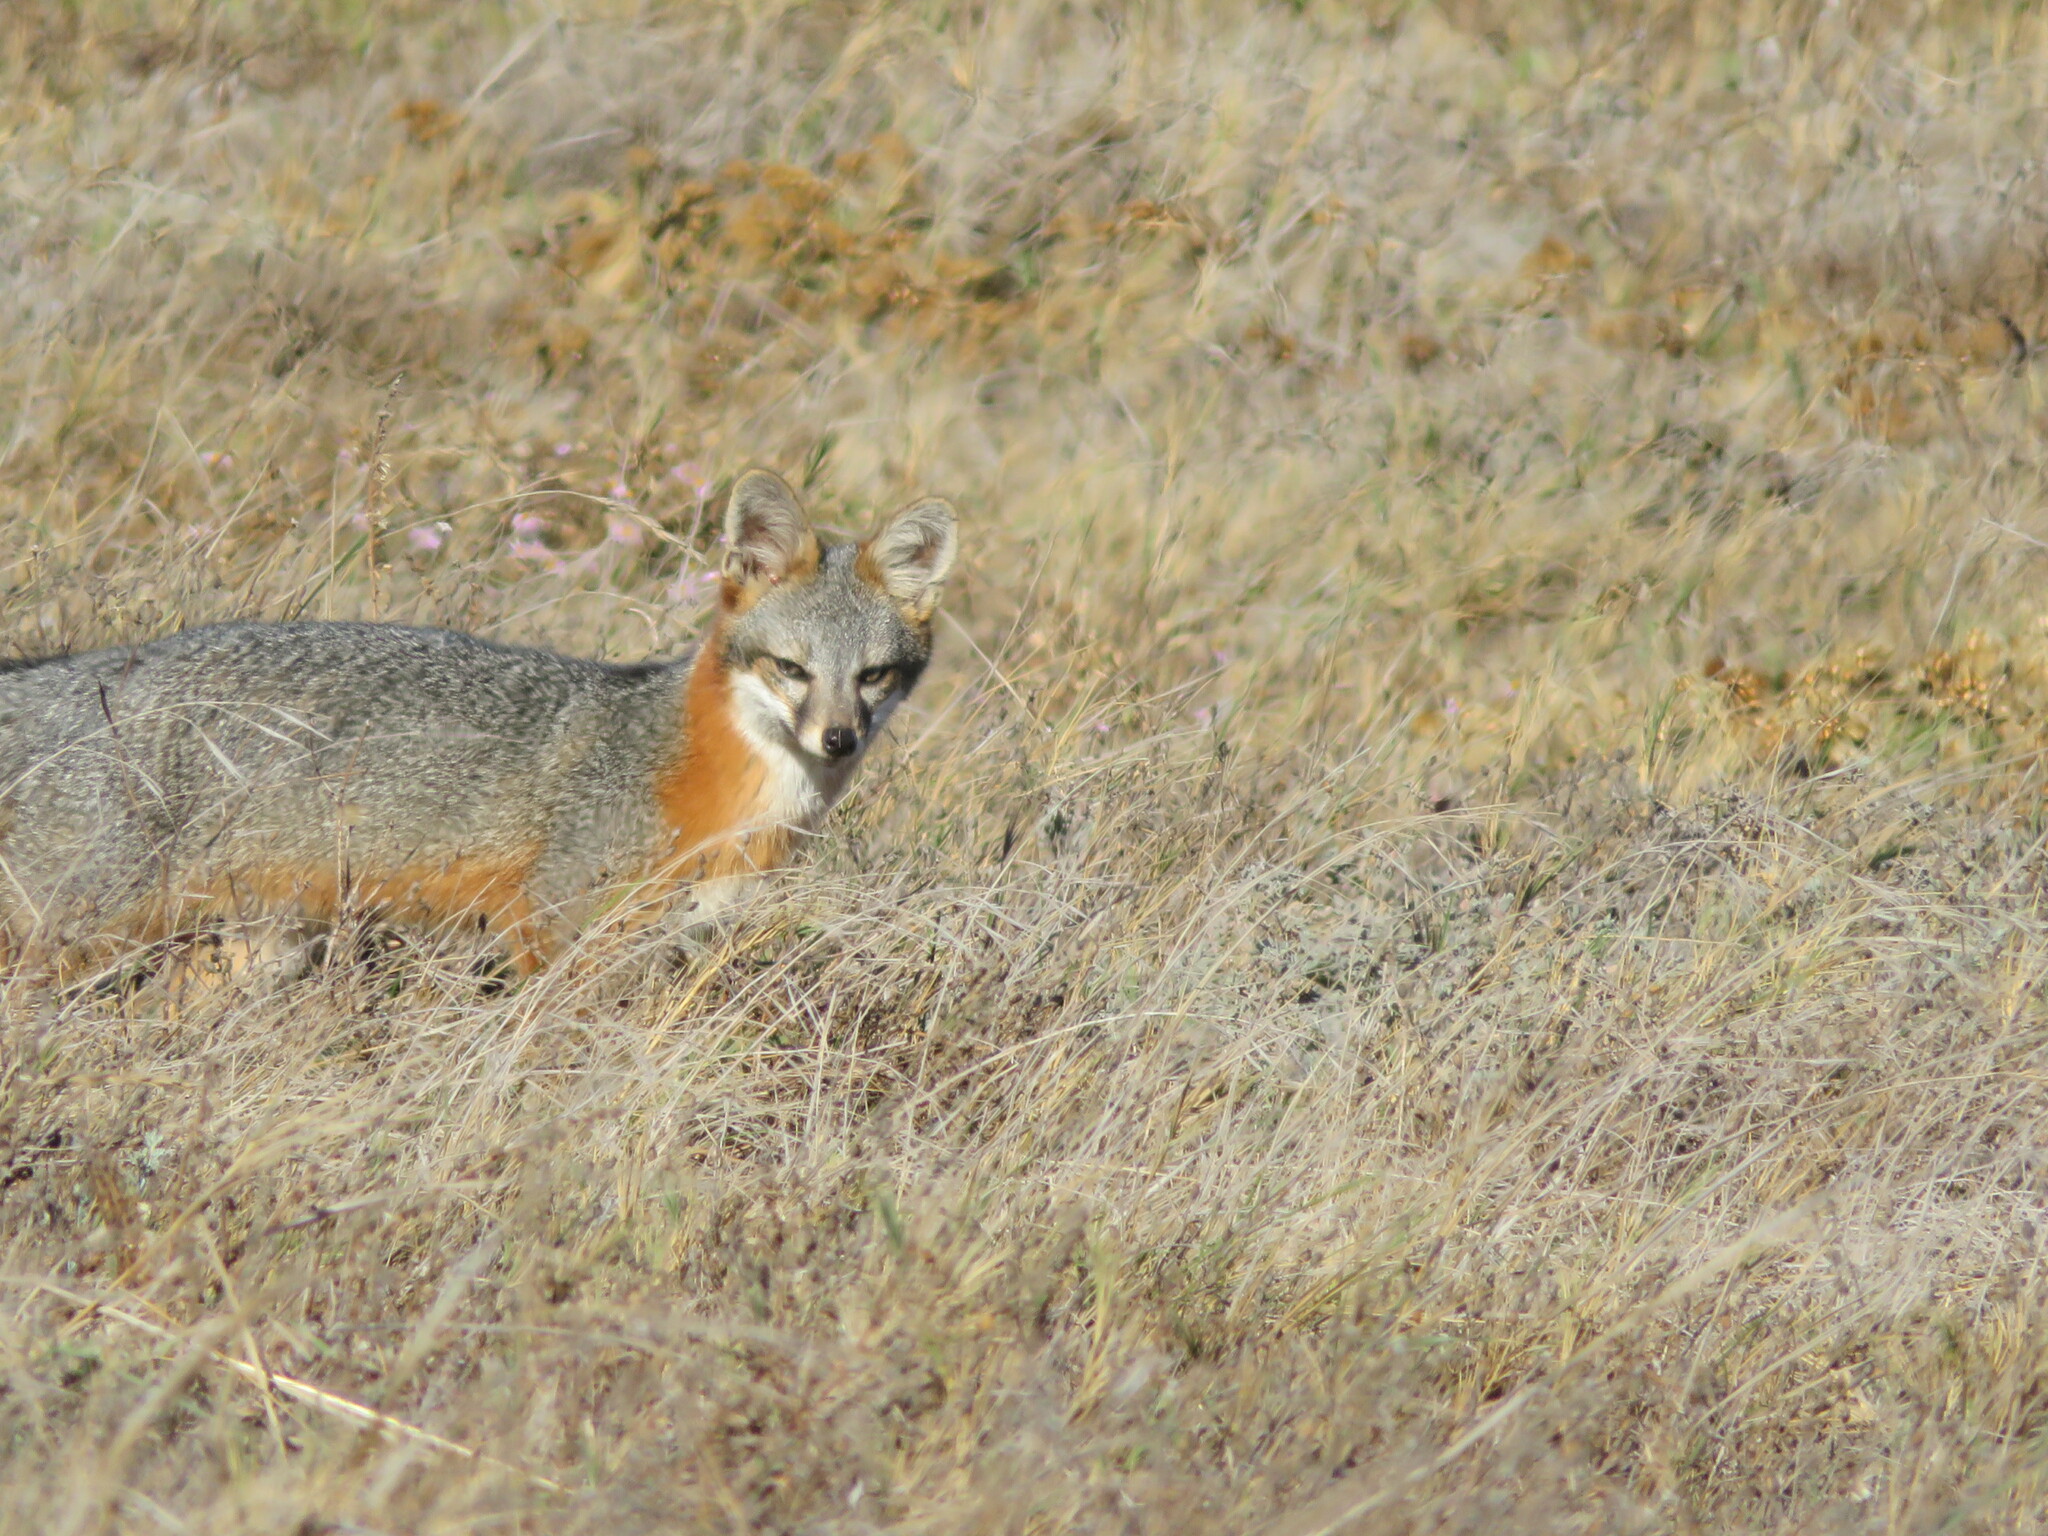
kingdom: Animalia
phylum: Chordata
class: Mammalia
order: Carnivora
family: Canidae
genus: Urocyon
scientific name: Urocyon littoralis
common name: Island gray fox
